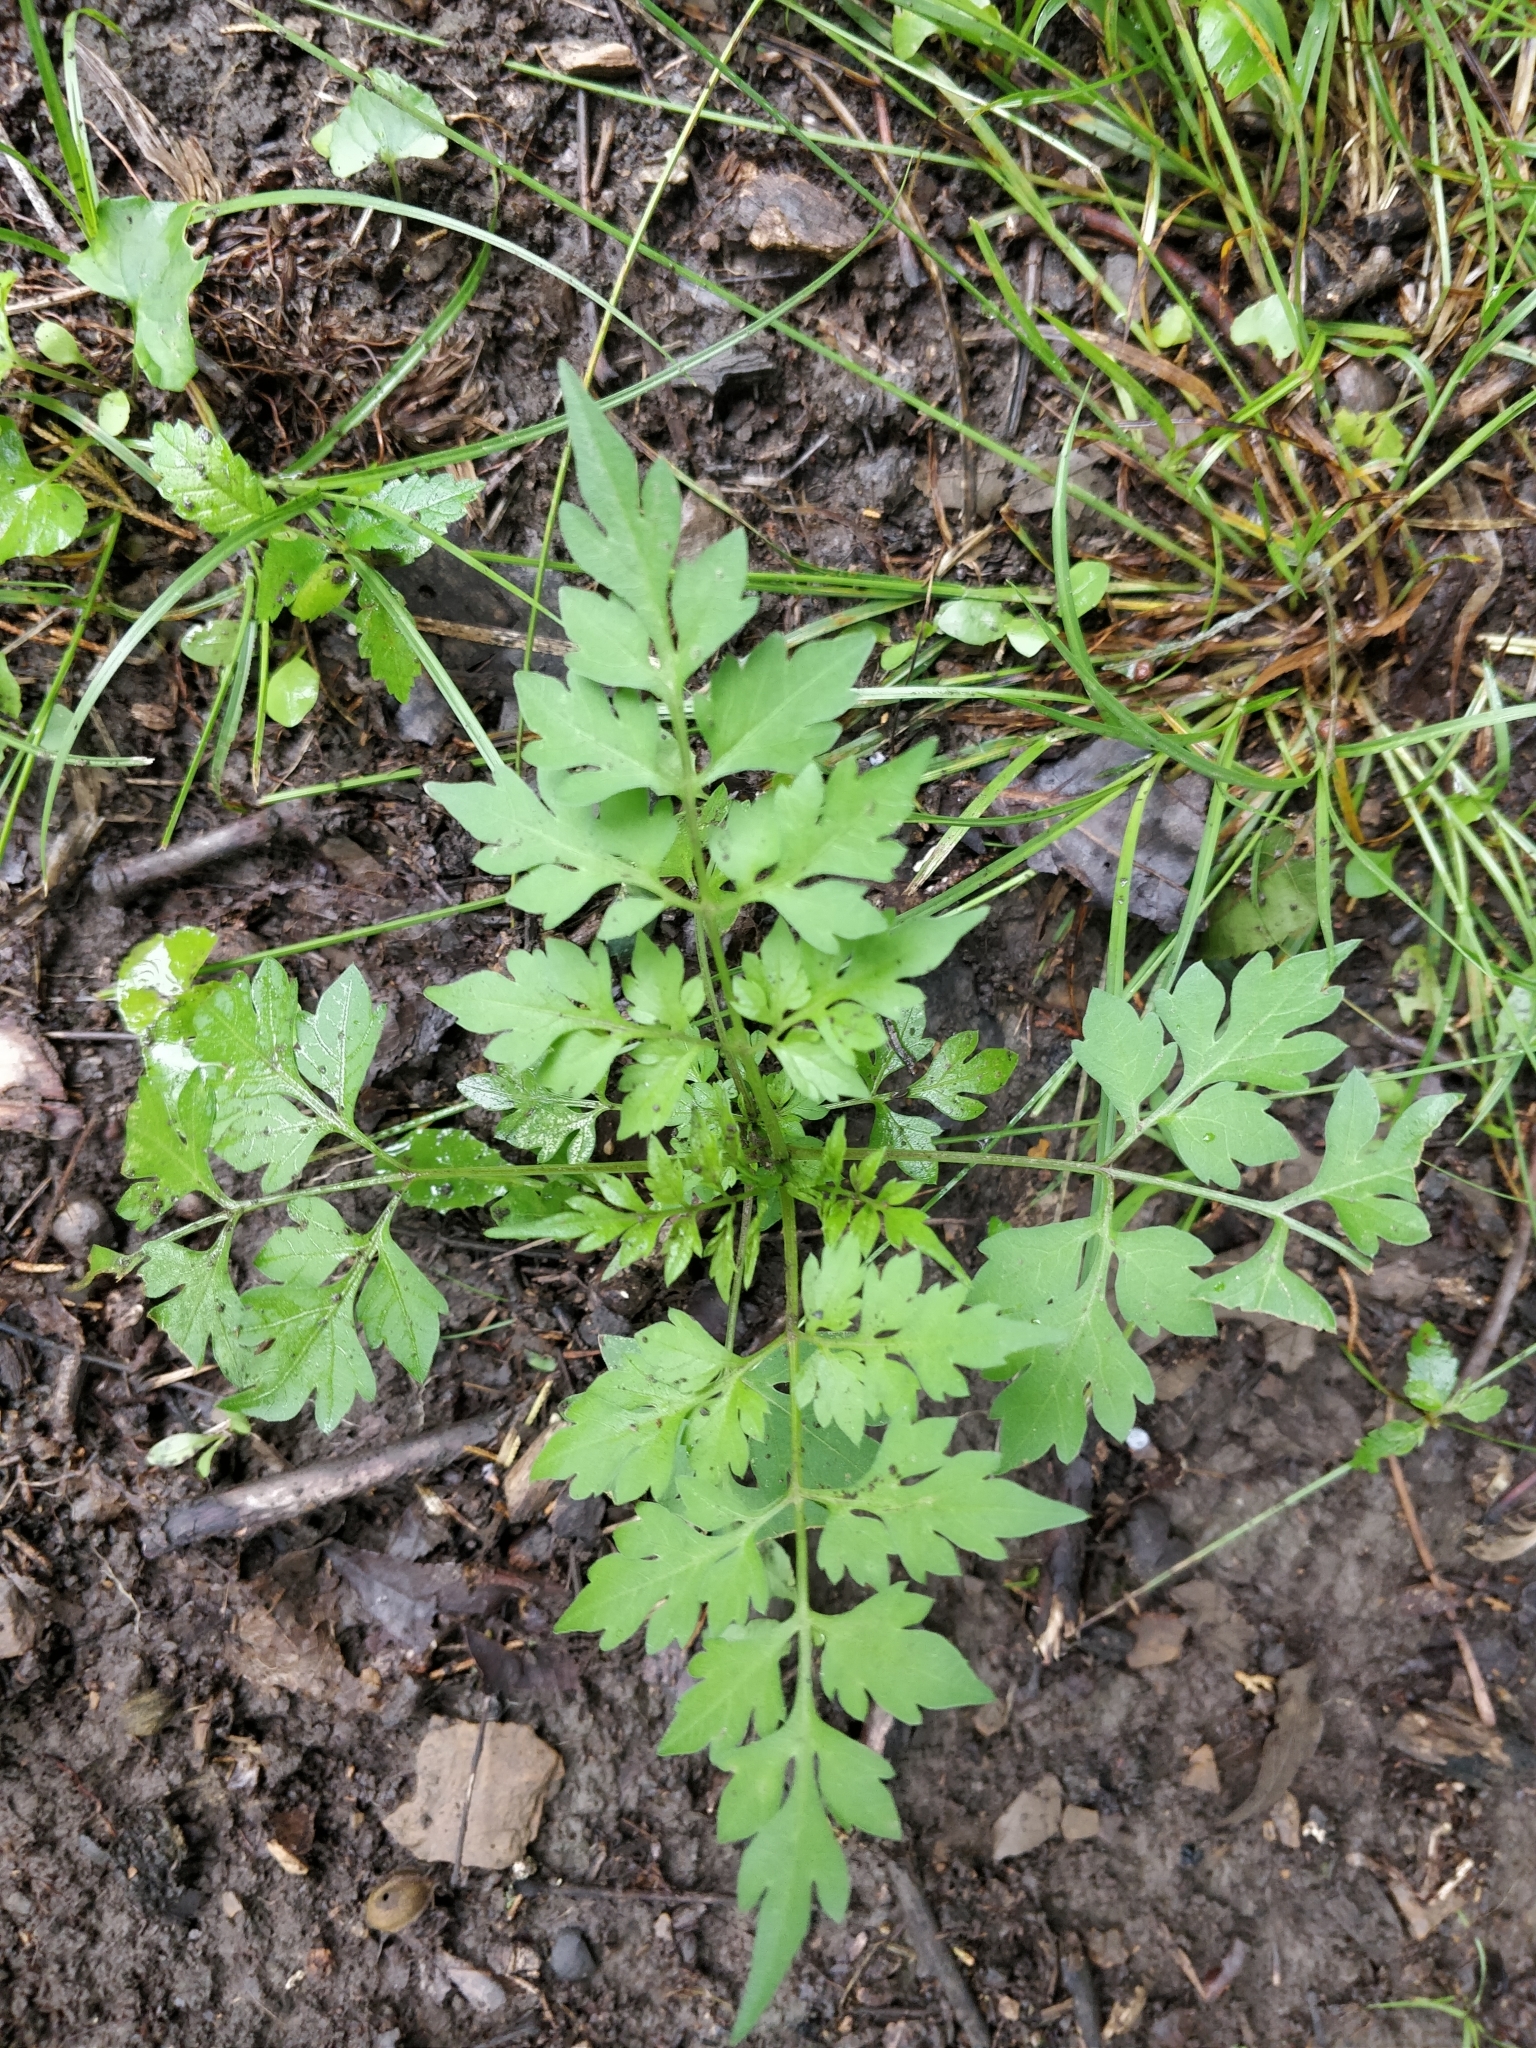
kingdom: Plantae
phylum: Tracheophyta
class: Magnoliopsida
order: Asterales
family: Asteraceae
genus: Bidens
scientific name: Bidens bipinnata
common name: Spanish-needles
